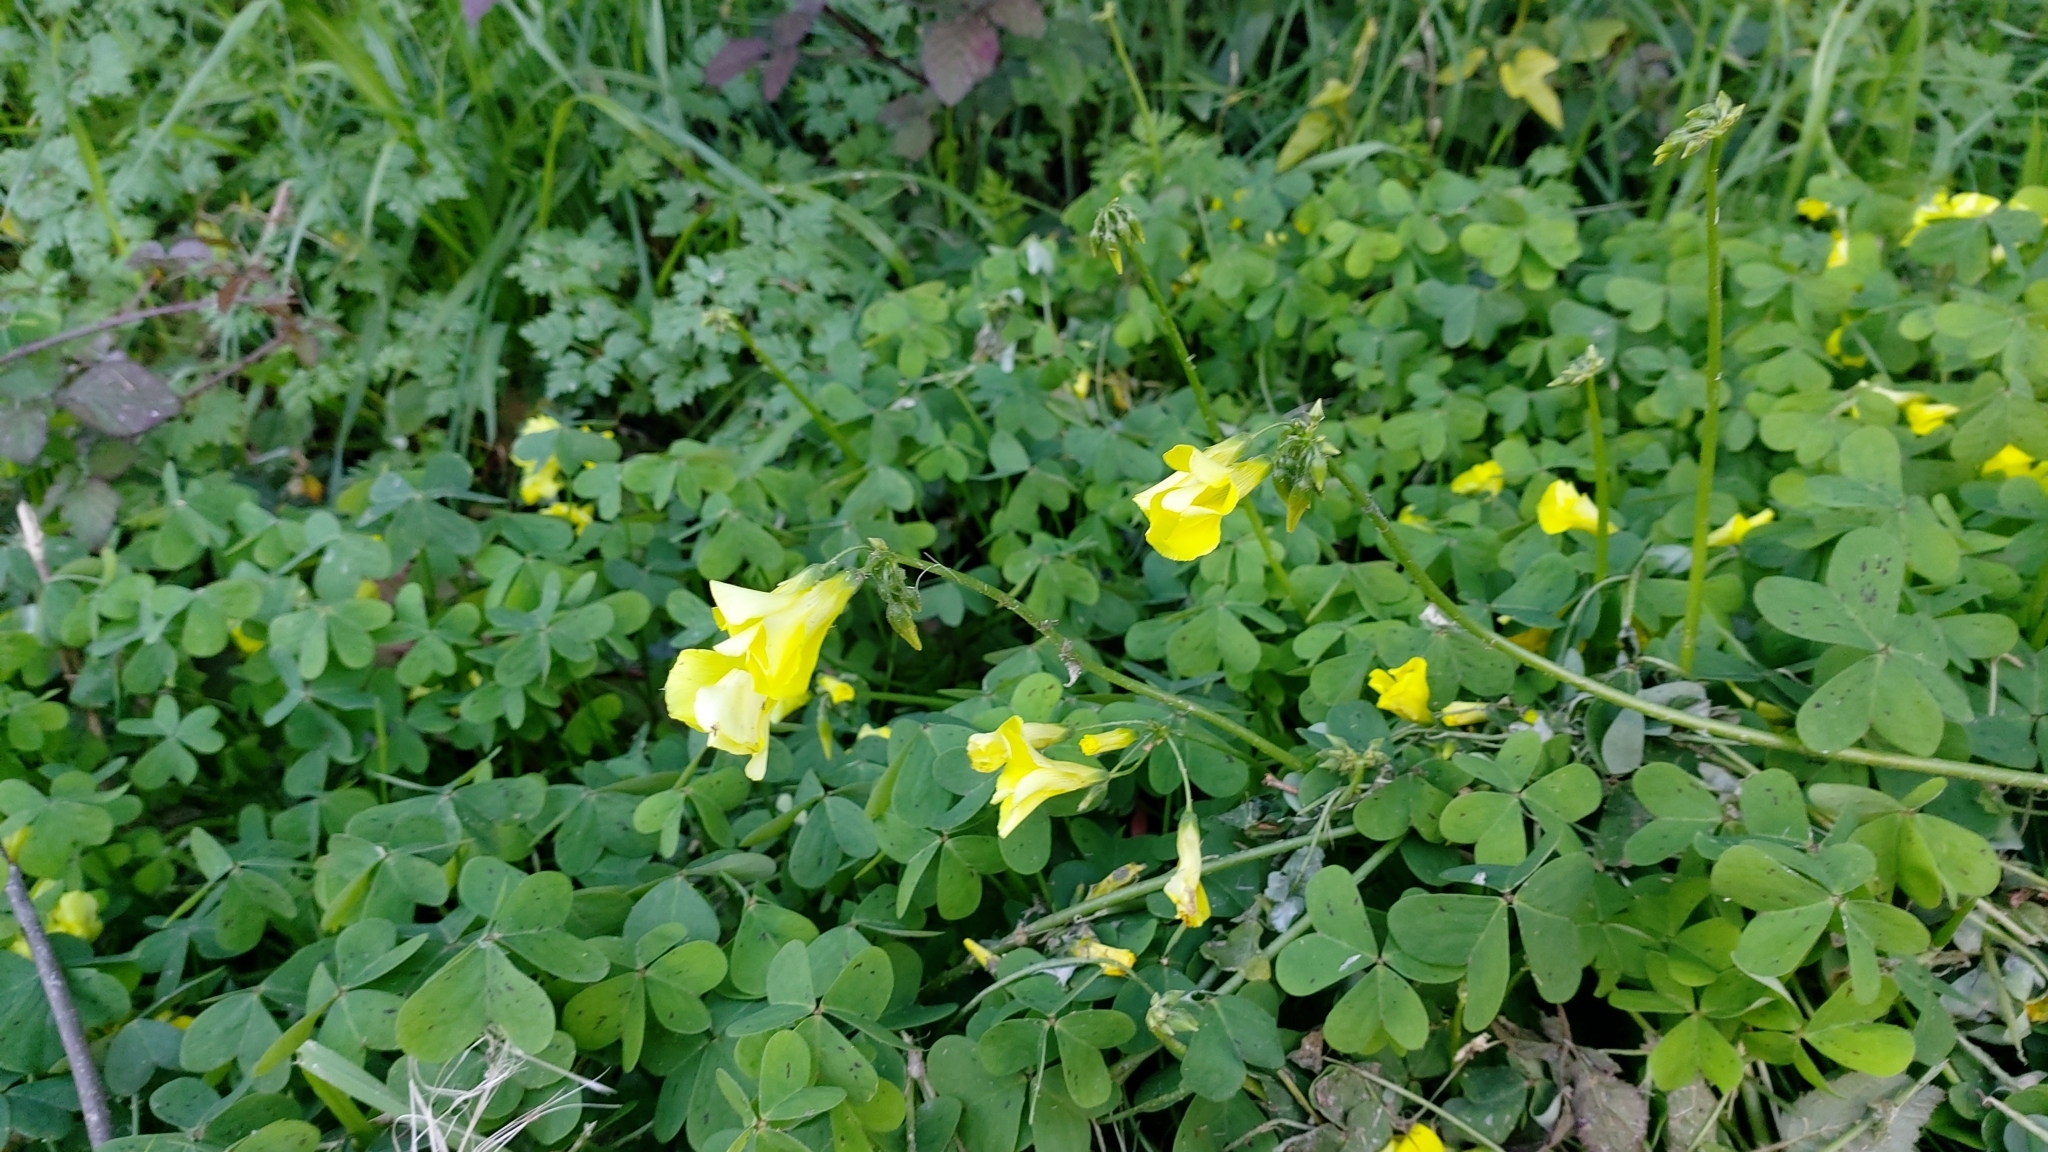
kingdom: Plantae
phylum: Tracheophyta
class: Magnoliopsida
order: Oxalidales
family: Oxalidaceae
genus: Oxalis
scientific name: Oxalis pes-caprae
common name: Bermuda-buttercup
